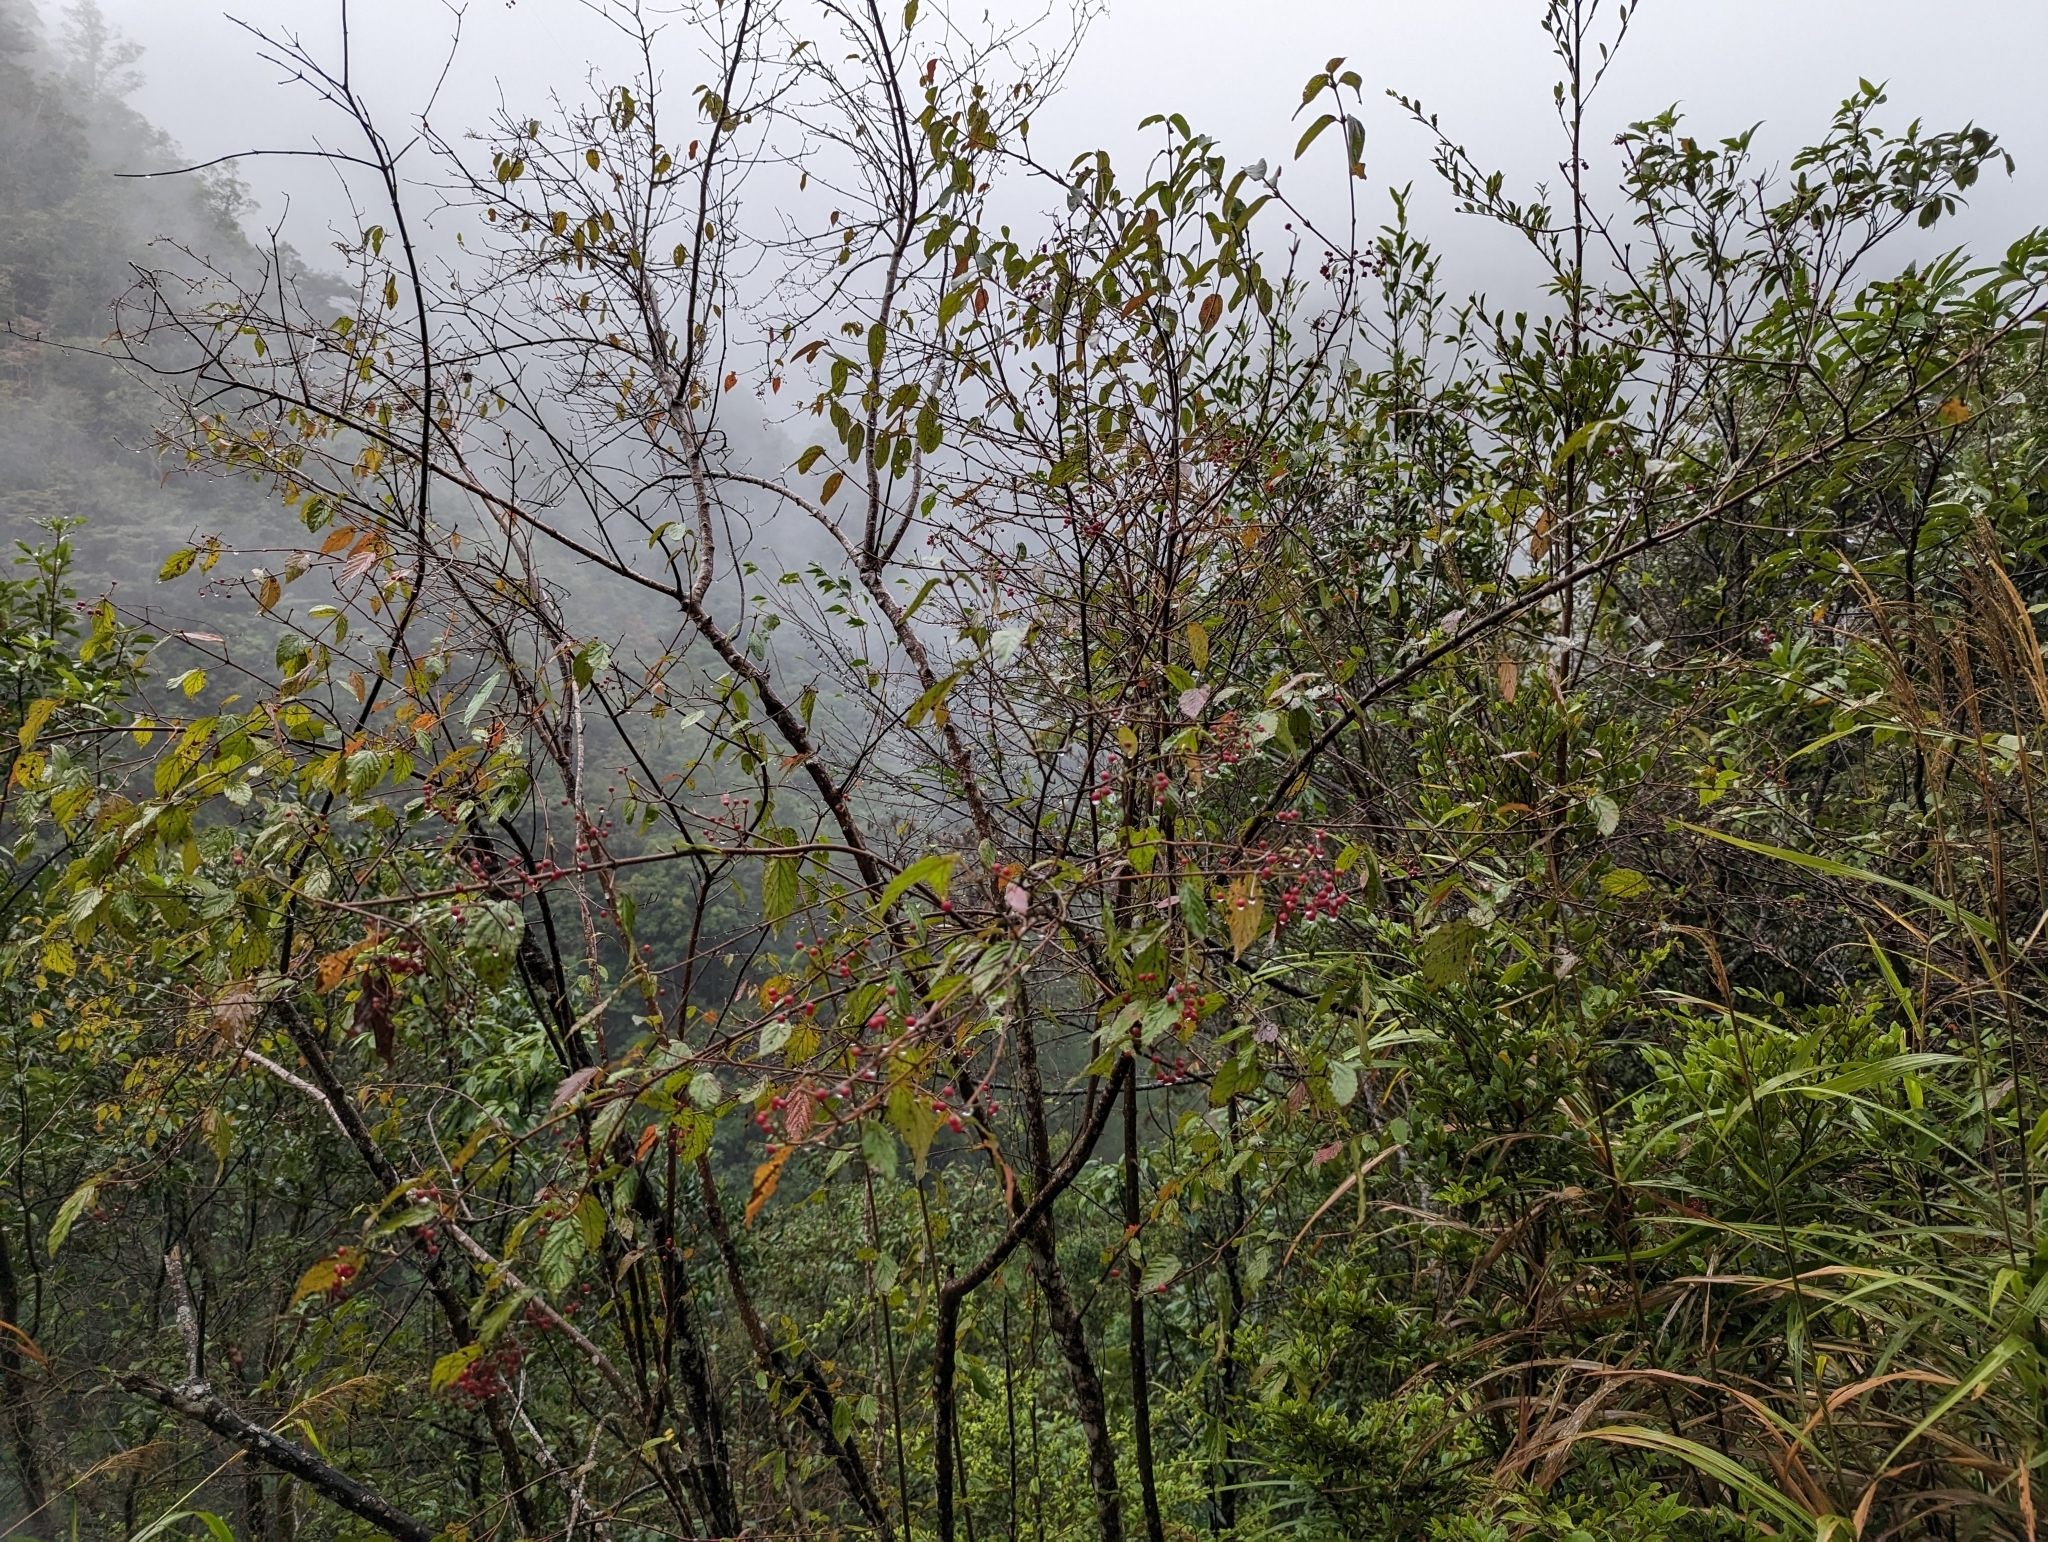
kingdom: Plantae
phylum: Tracheophyta
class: Magnoliopsida
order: Dipsacales
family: Viburnaceae
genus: Viburnum
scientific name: Viburnum luzonicum
